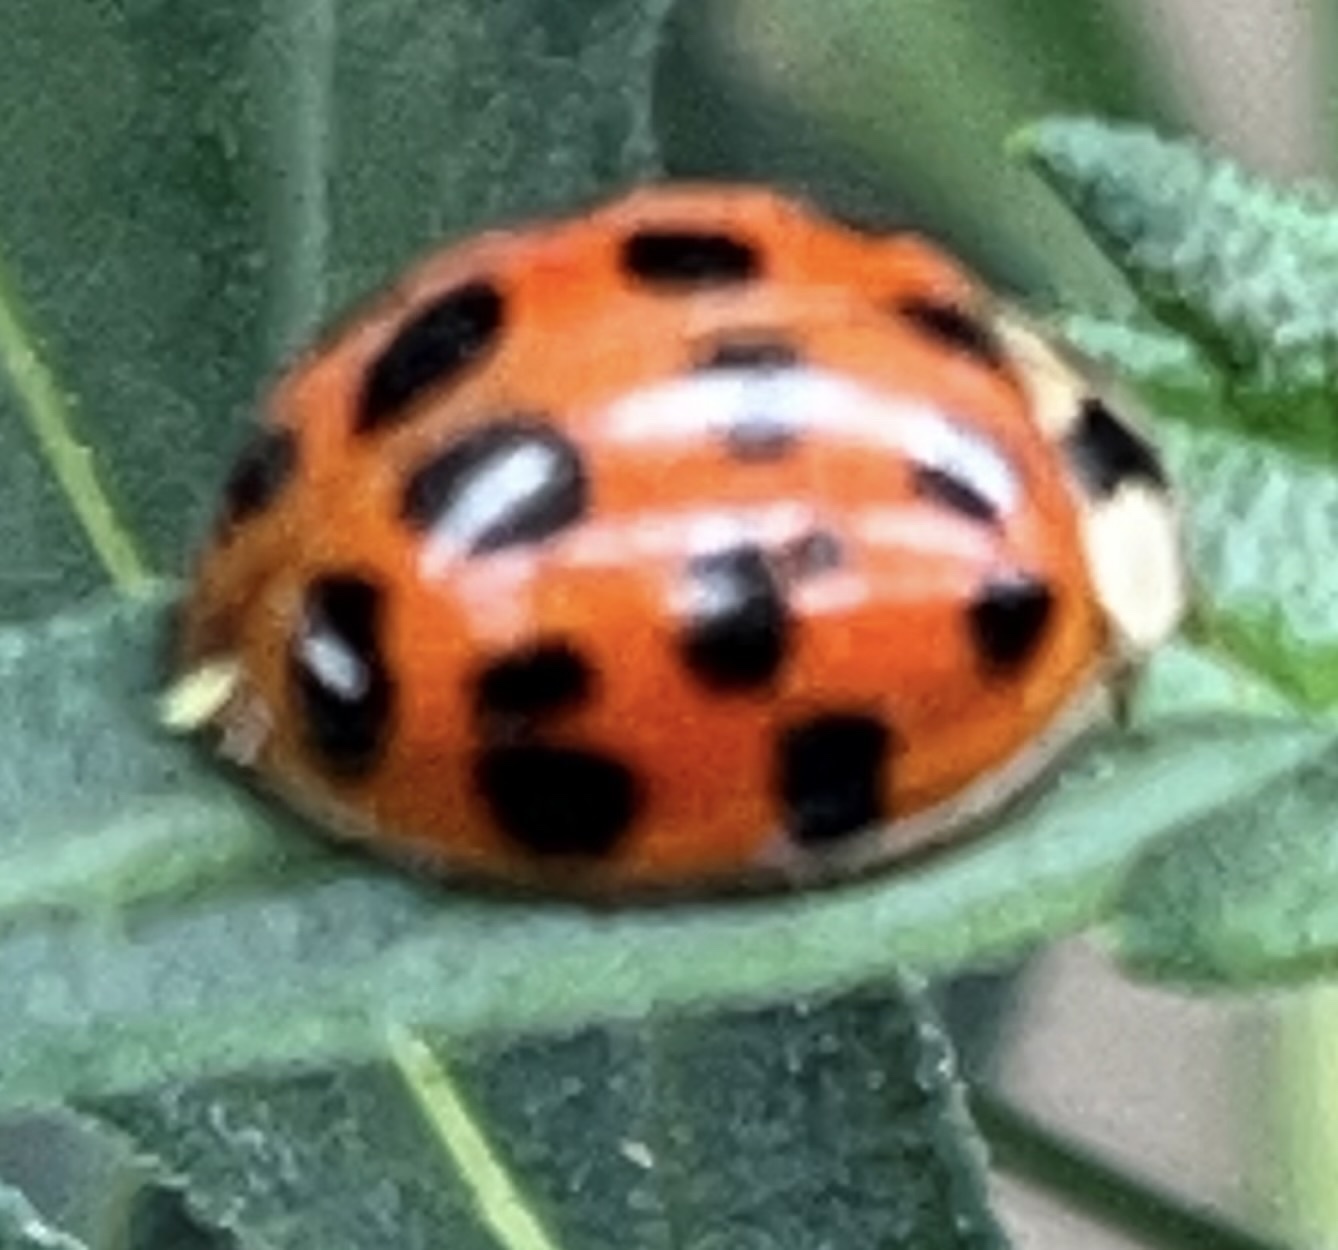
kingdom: Animalia
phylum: Arthropoda
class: Insecta
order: Coleoptera
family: Coccinellidae
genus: Harmonia
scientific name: Harmonia axyridis
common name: Harlequin ladybird
